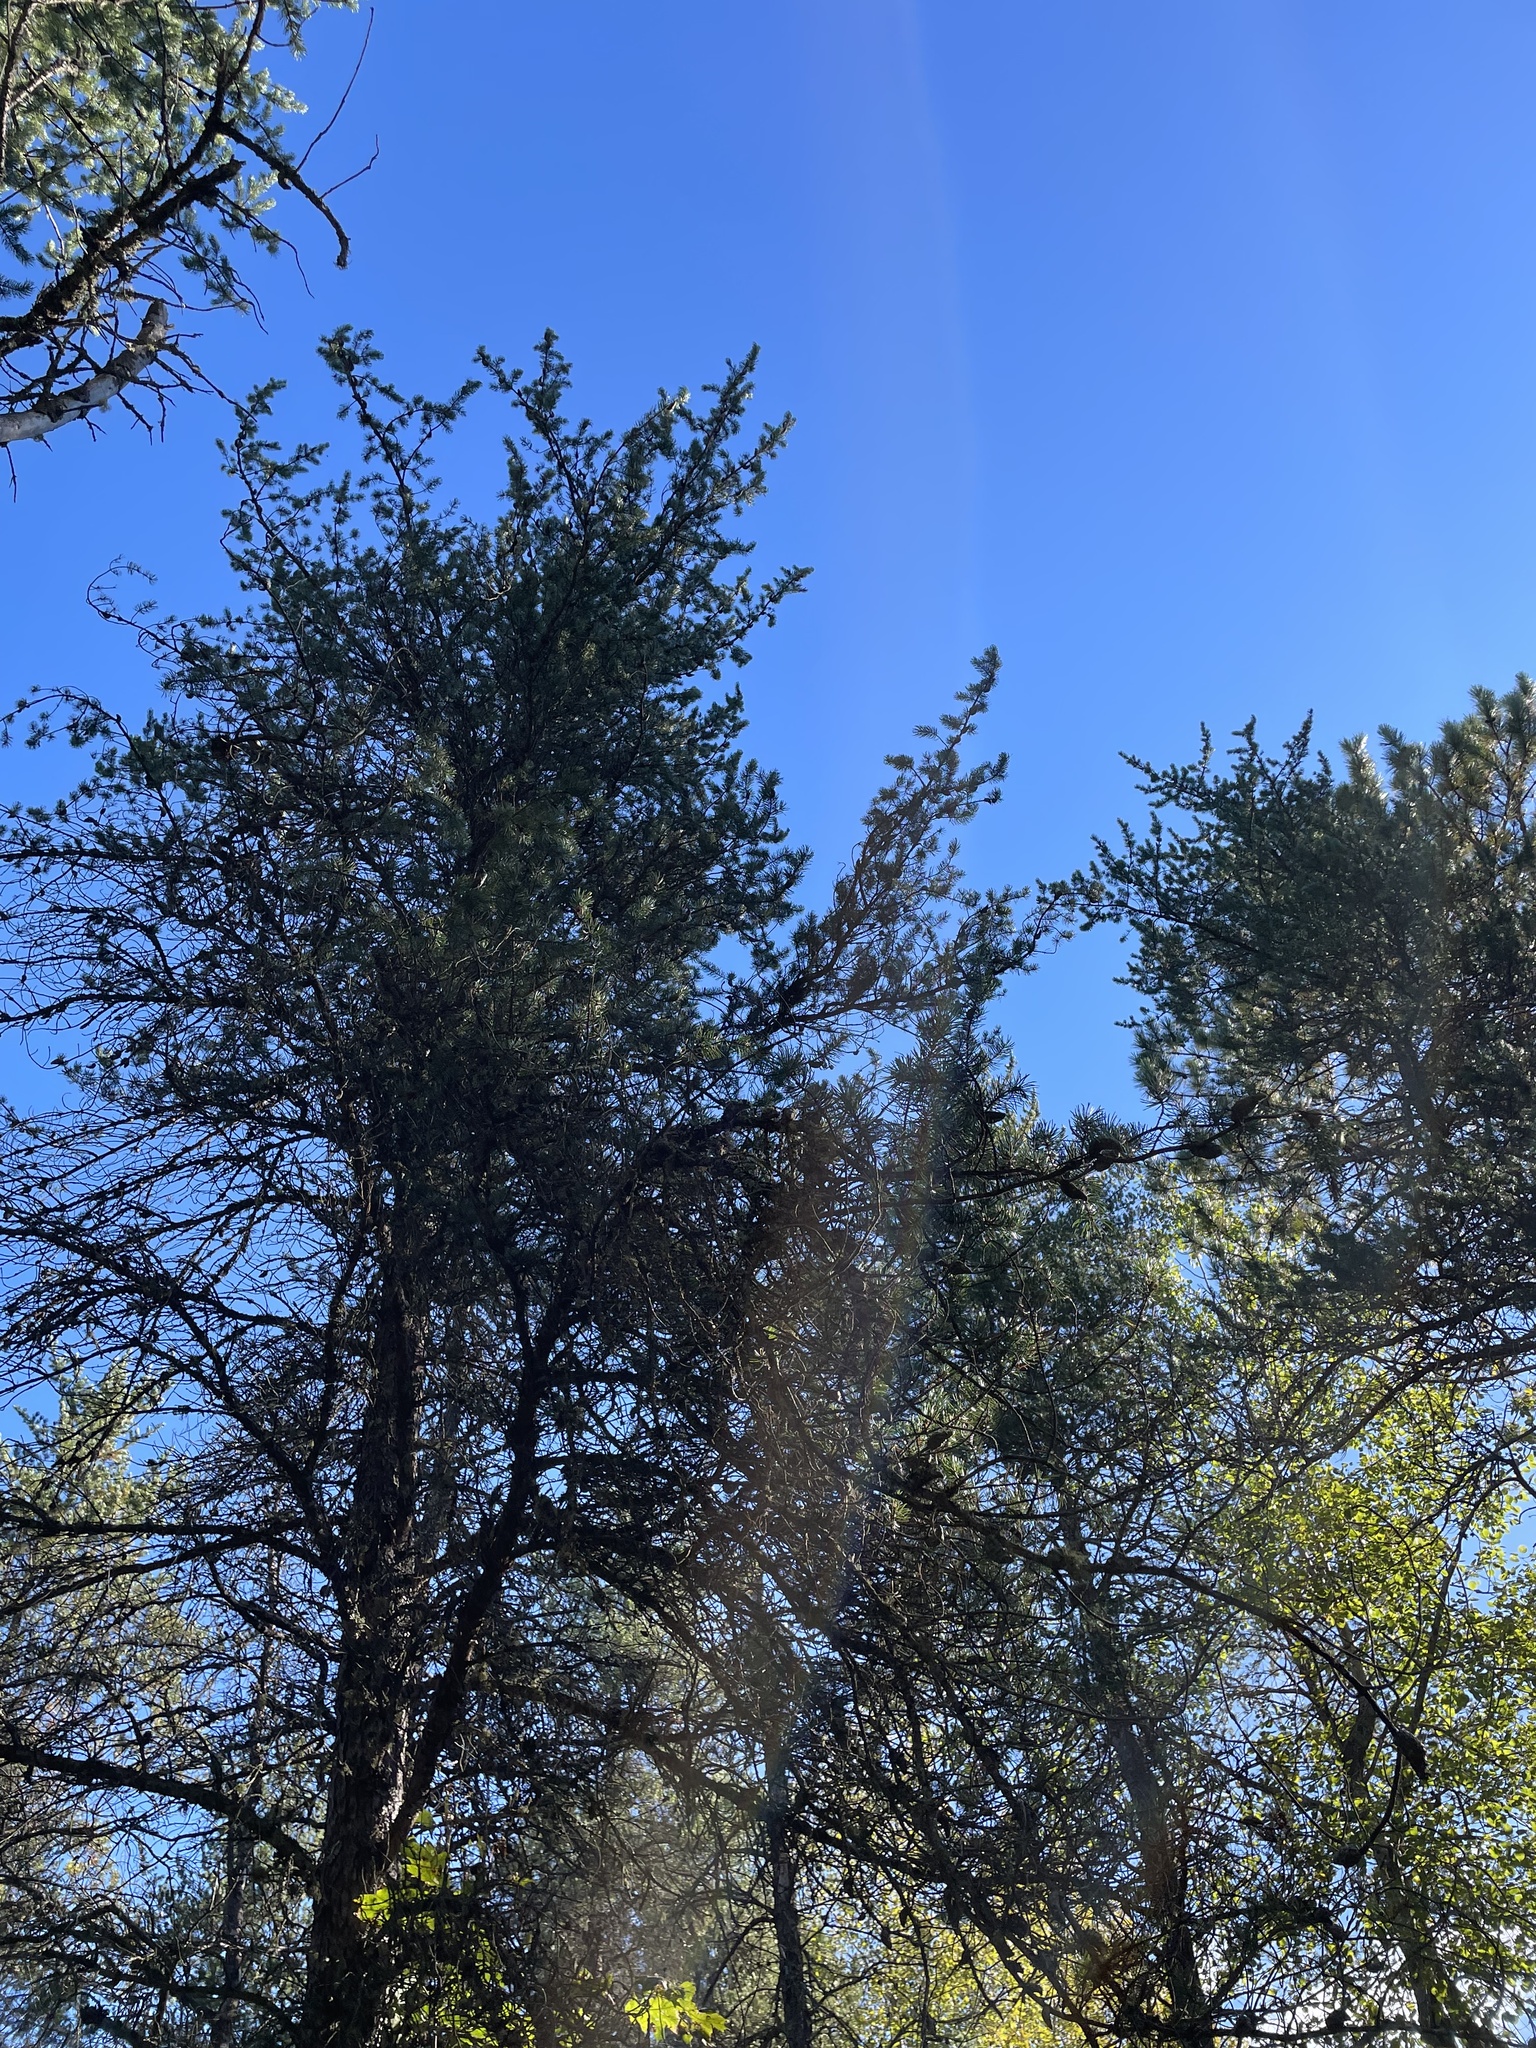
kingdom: Plantae
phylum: Tracheophyta
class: Pinopsida
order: Pinales
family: Pinaceae
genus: Pinus
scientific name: Pinus banksiana
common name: Jack pine
